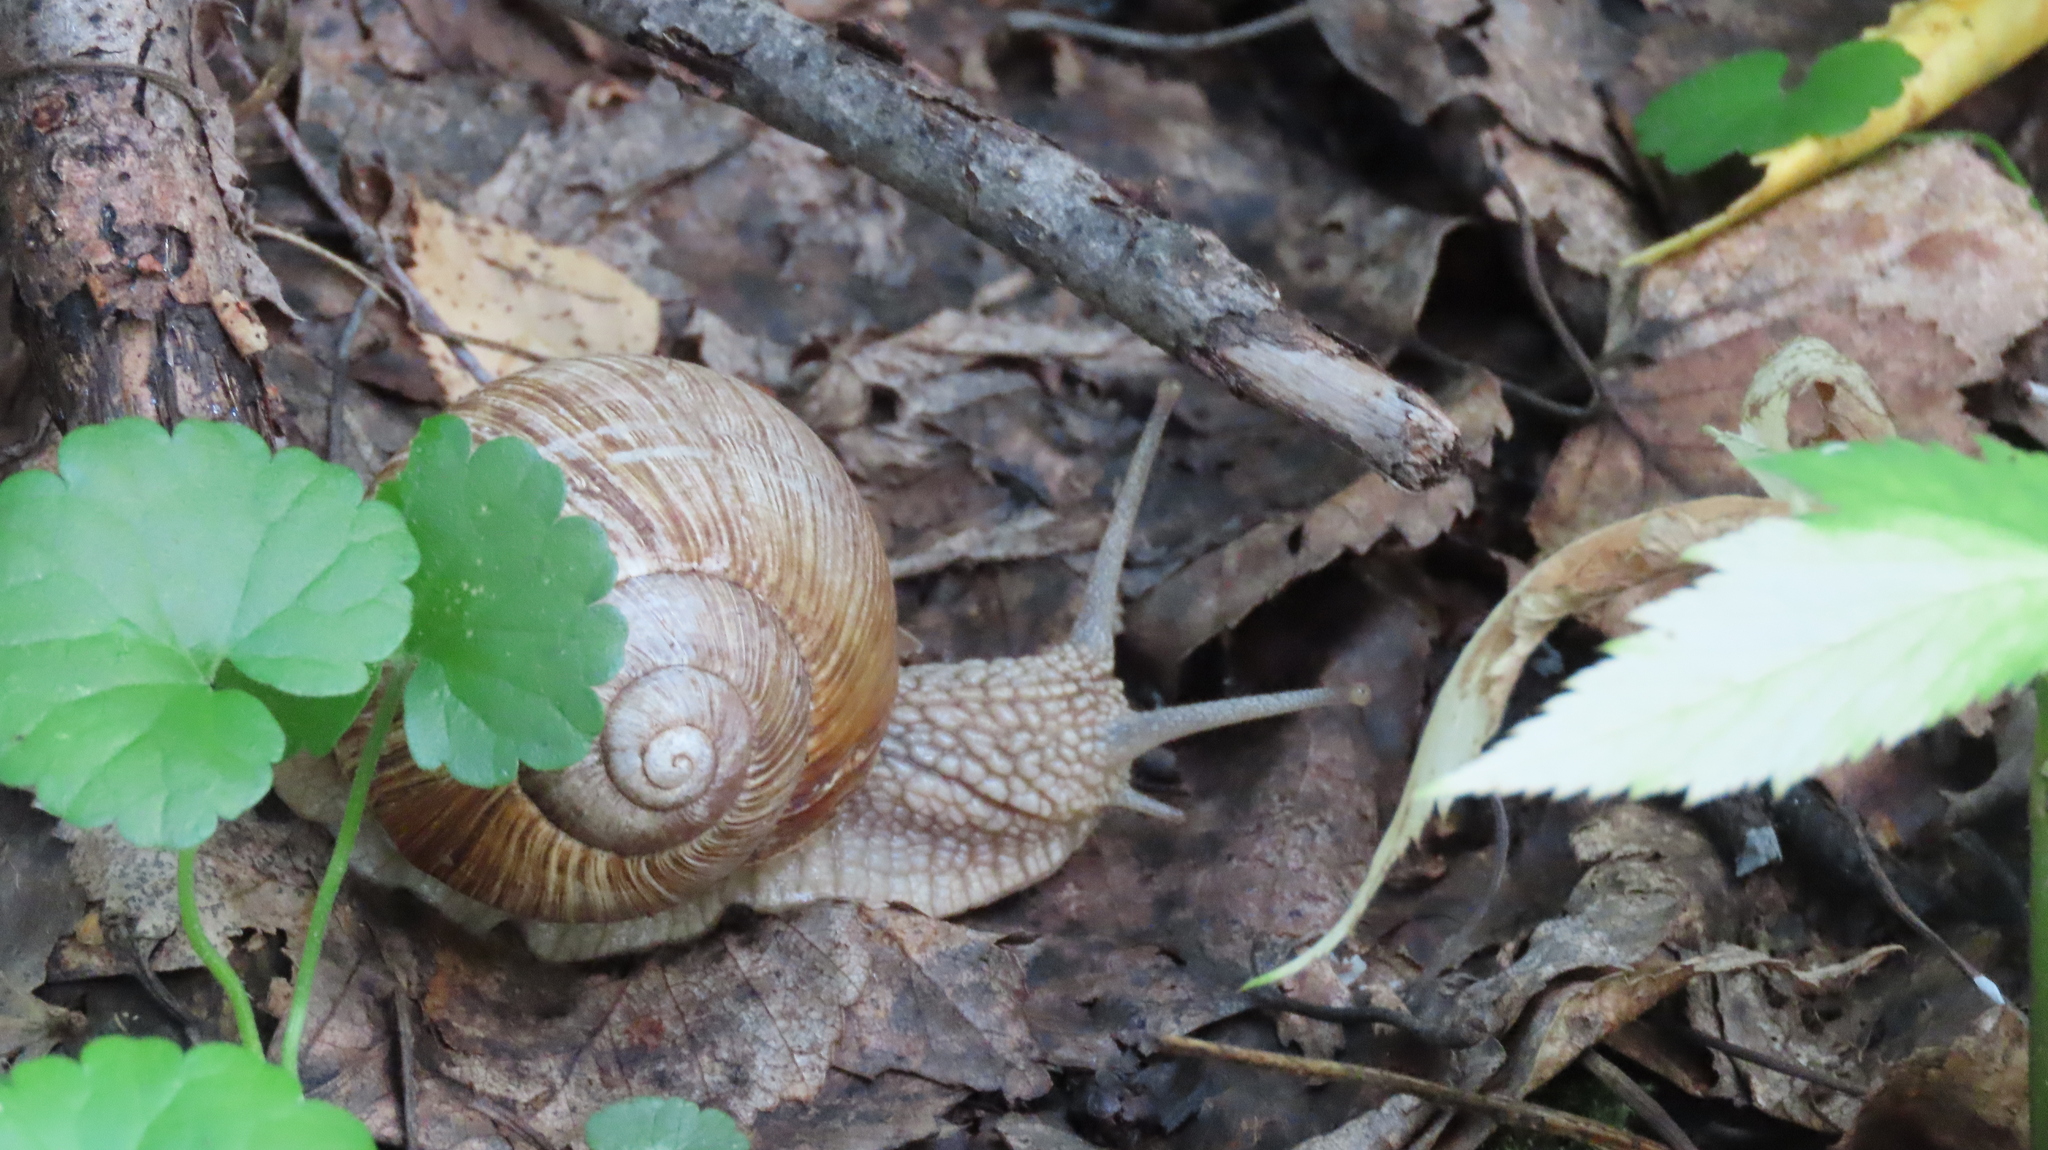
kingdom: Animalia
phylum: Mollusca
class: Gastropoda
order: Stylommatophora
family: Helicidae
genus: Helix
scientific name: Helix pomatia
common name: Roman snail
